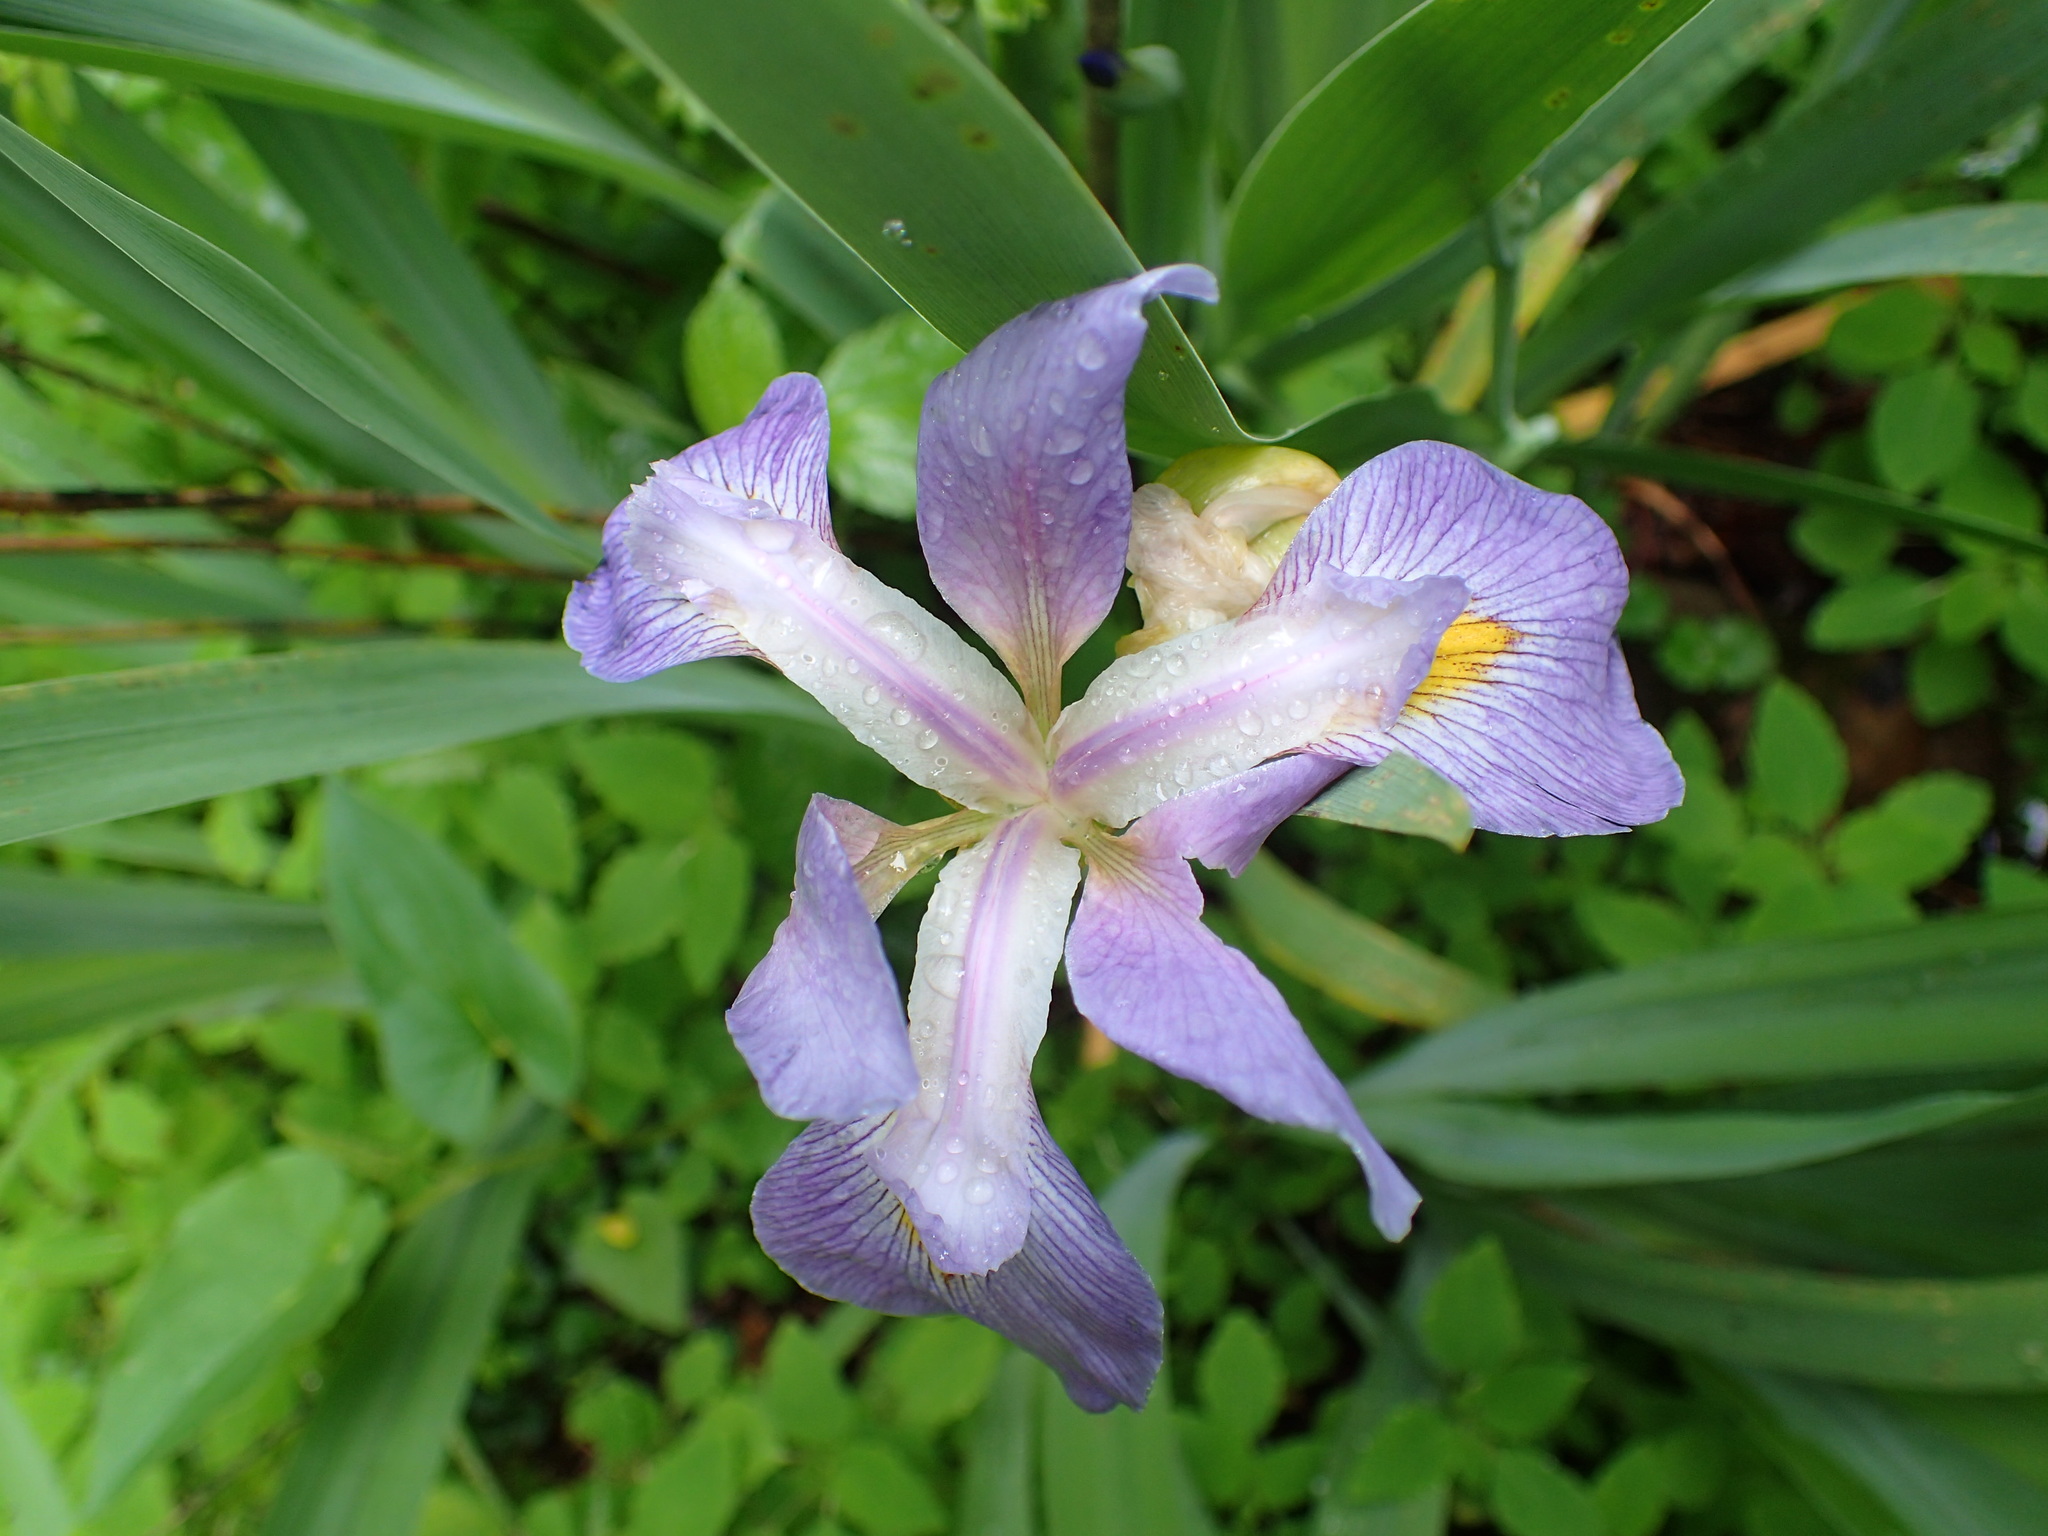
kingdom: Plantae
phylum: Tracheophyta
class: Liliopsida
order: Asparagales
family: Iridaceae
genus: Iris
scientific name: Iris virginica
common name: Southern blue flag
